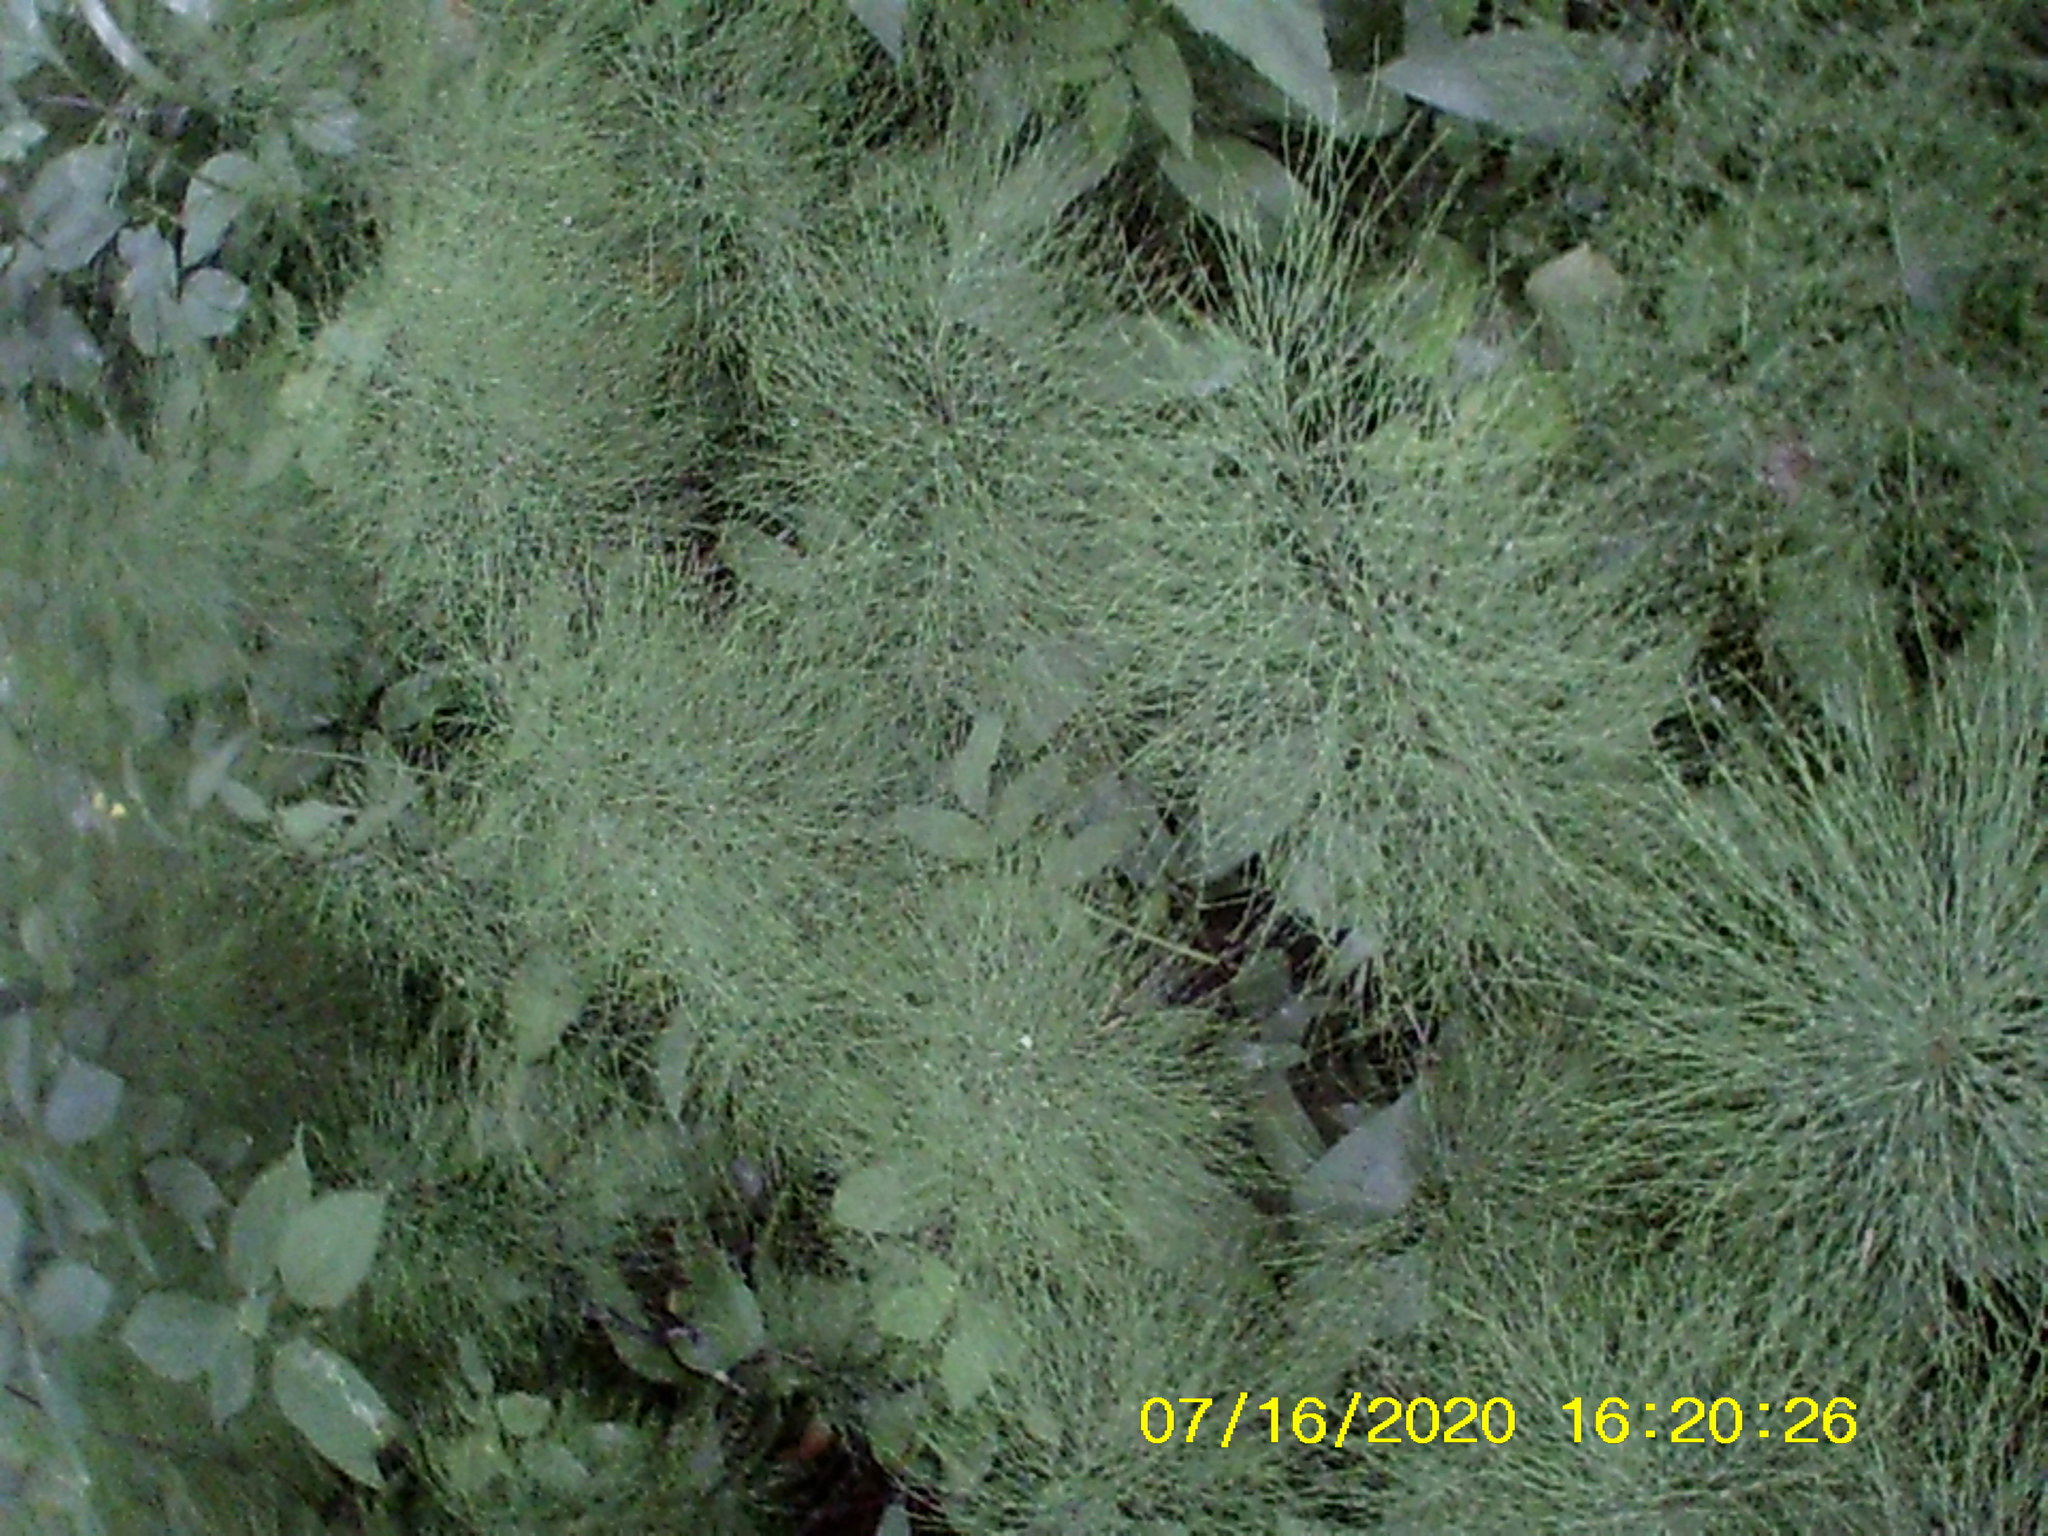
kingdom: Plantae
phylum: Tracheophyta
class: Polypodiopsida
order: Equisetales
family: Equisetaceae
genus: Equisetum
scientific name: Equisetum sylvaticum
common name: Wood horsetail
